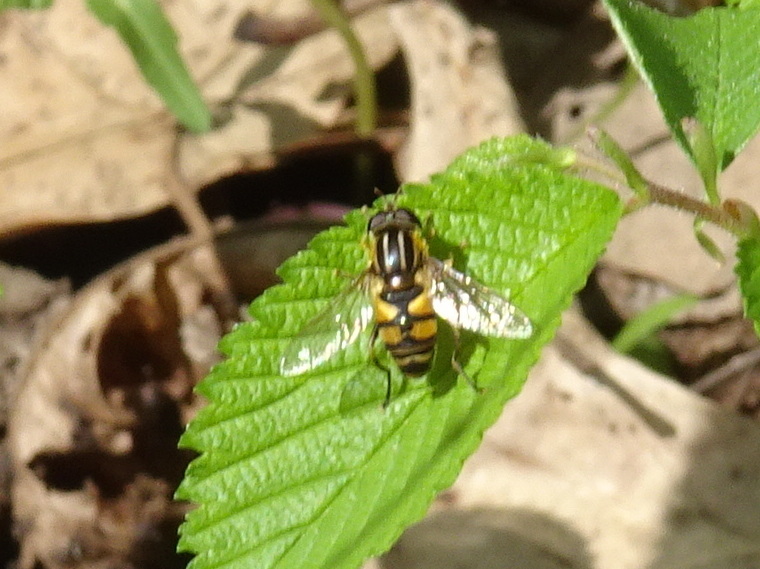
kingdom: Animalia
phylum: Arthropoda
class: Insecta
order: Diptera
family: Syrphidae
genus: Helophilus
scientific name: Helophilus fasciatus
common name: Narrow-headed marsh fly
